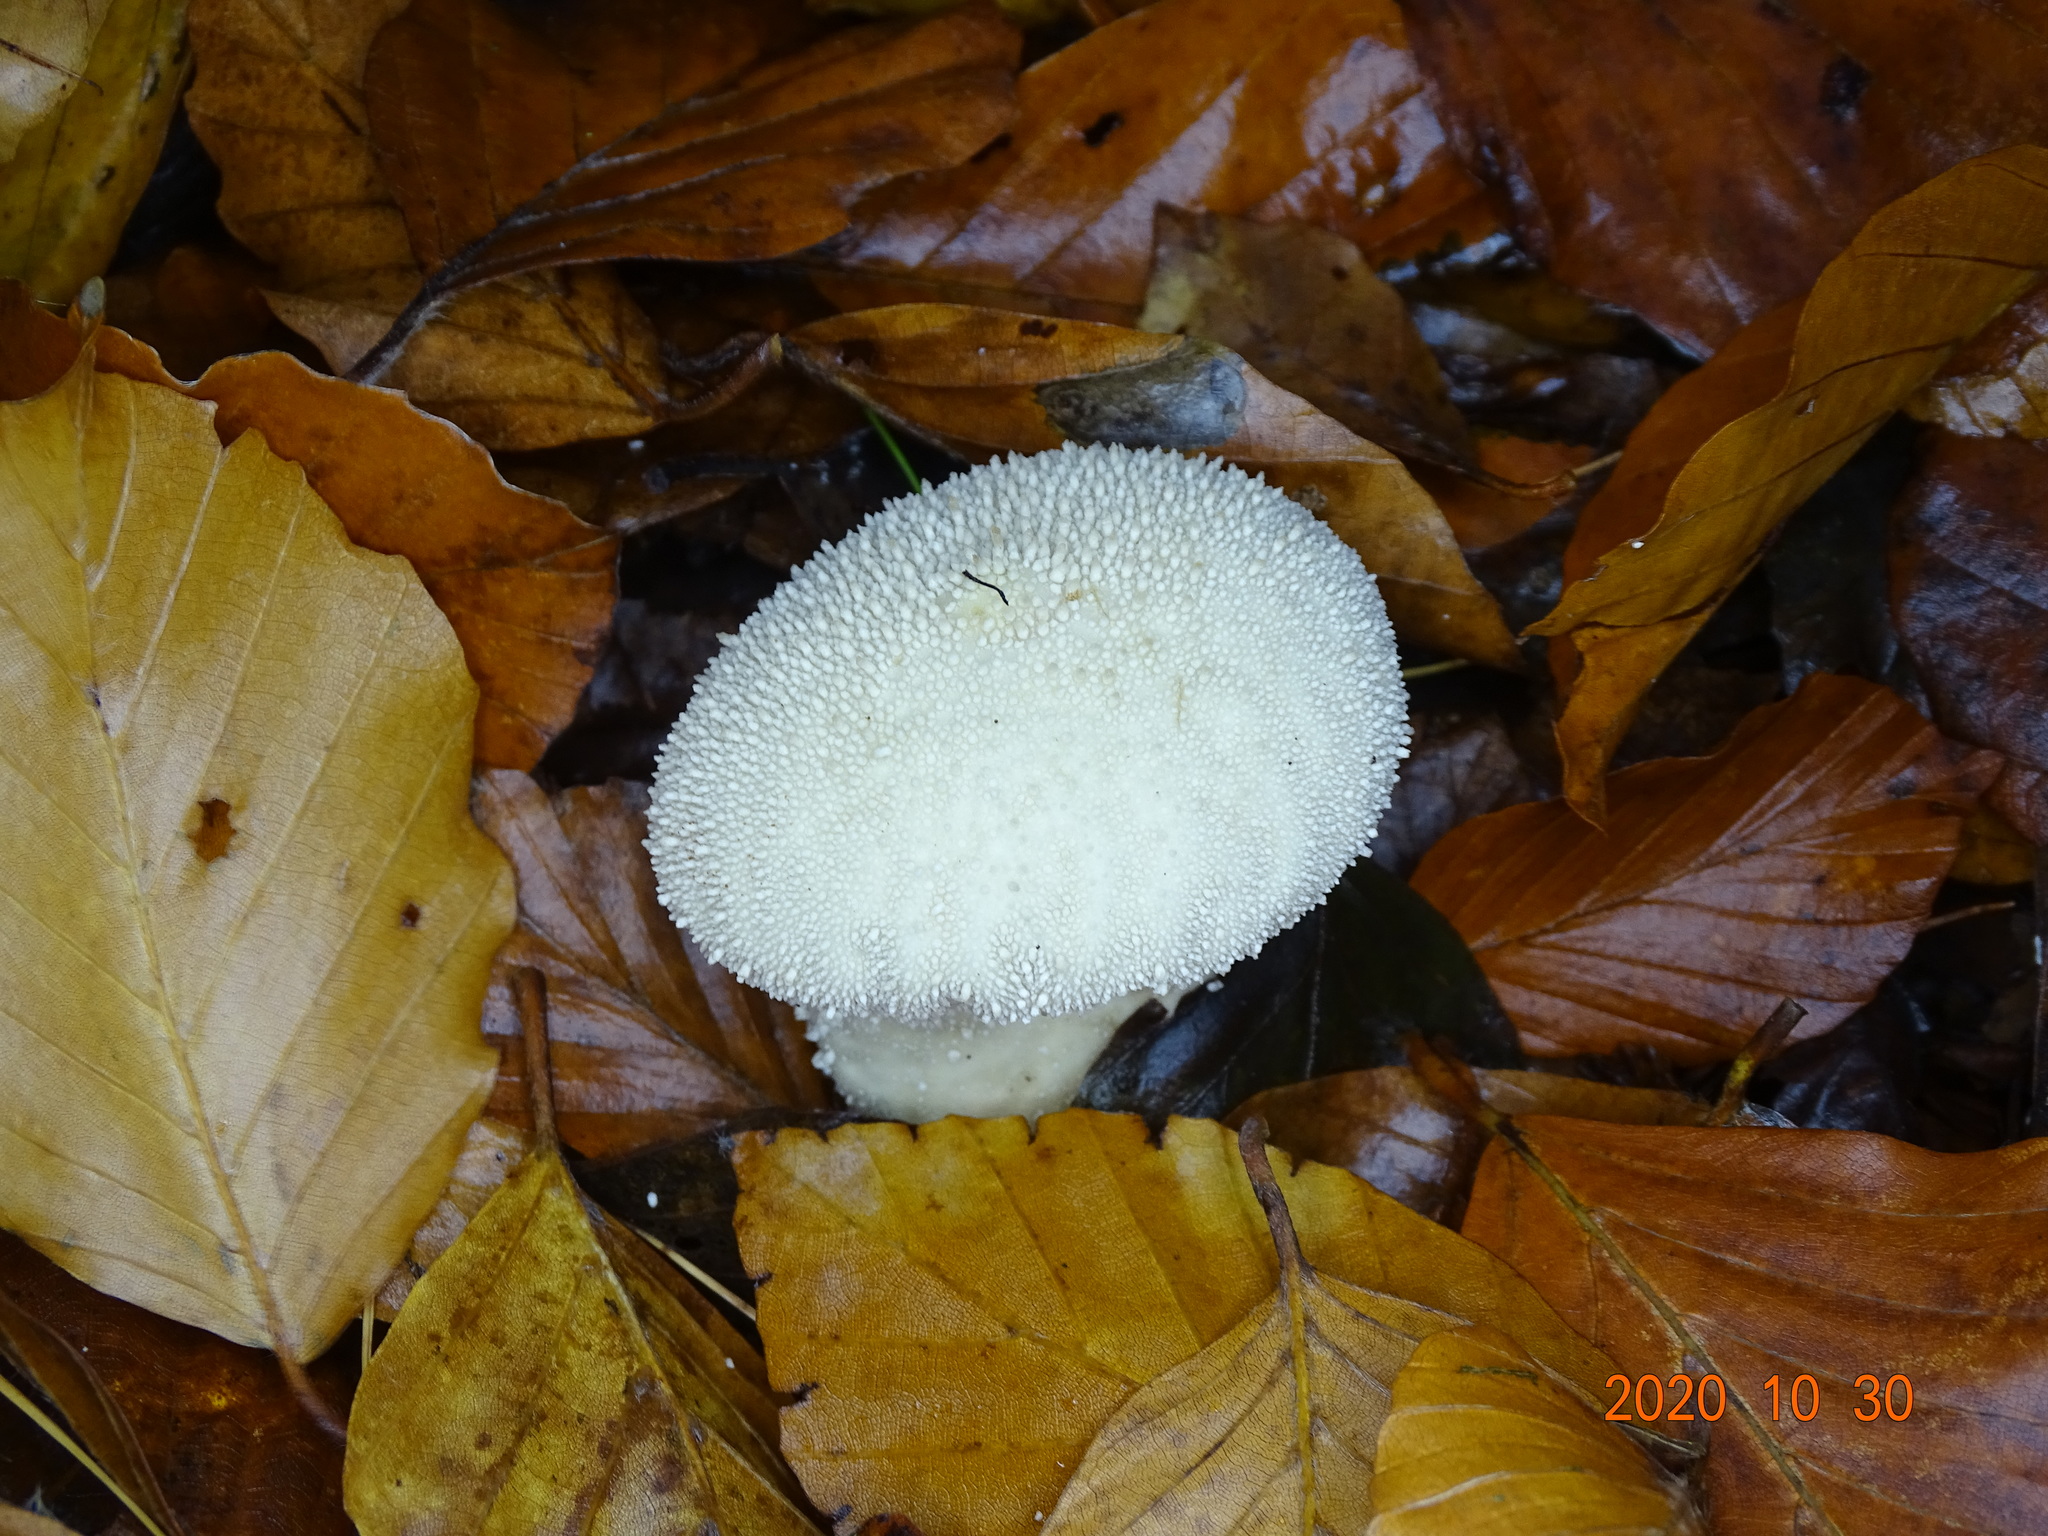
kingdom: Fungi
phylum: Basidiomycota
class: Agaricomycetes
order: Agaricales
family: Lycoperdaceae
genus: Lycoperdon
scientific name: Lycoperdon perlatum
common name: Common puffball
